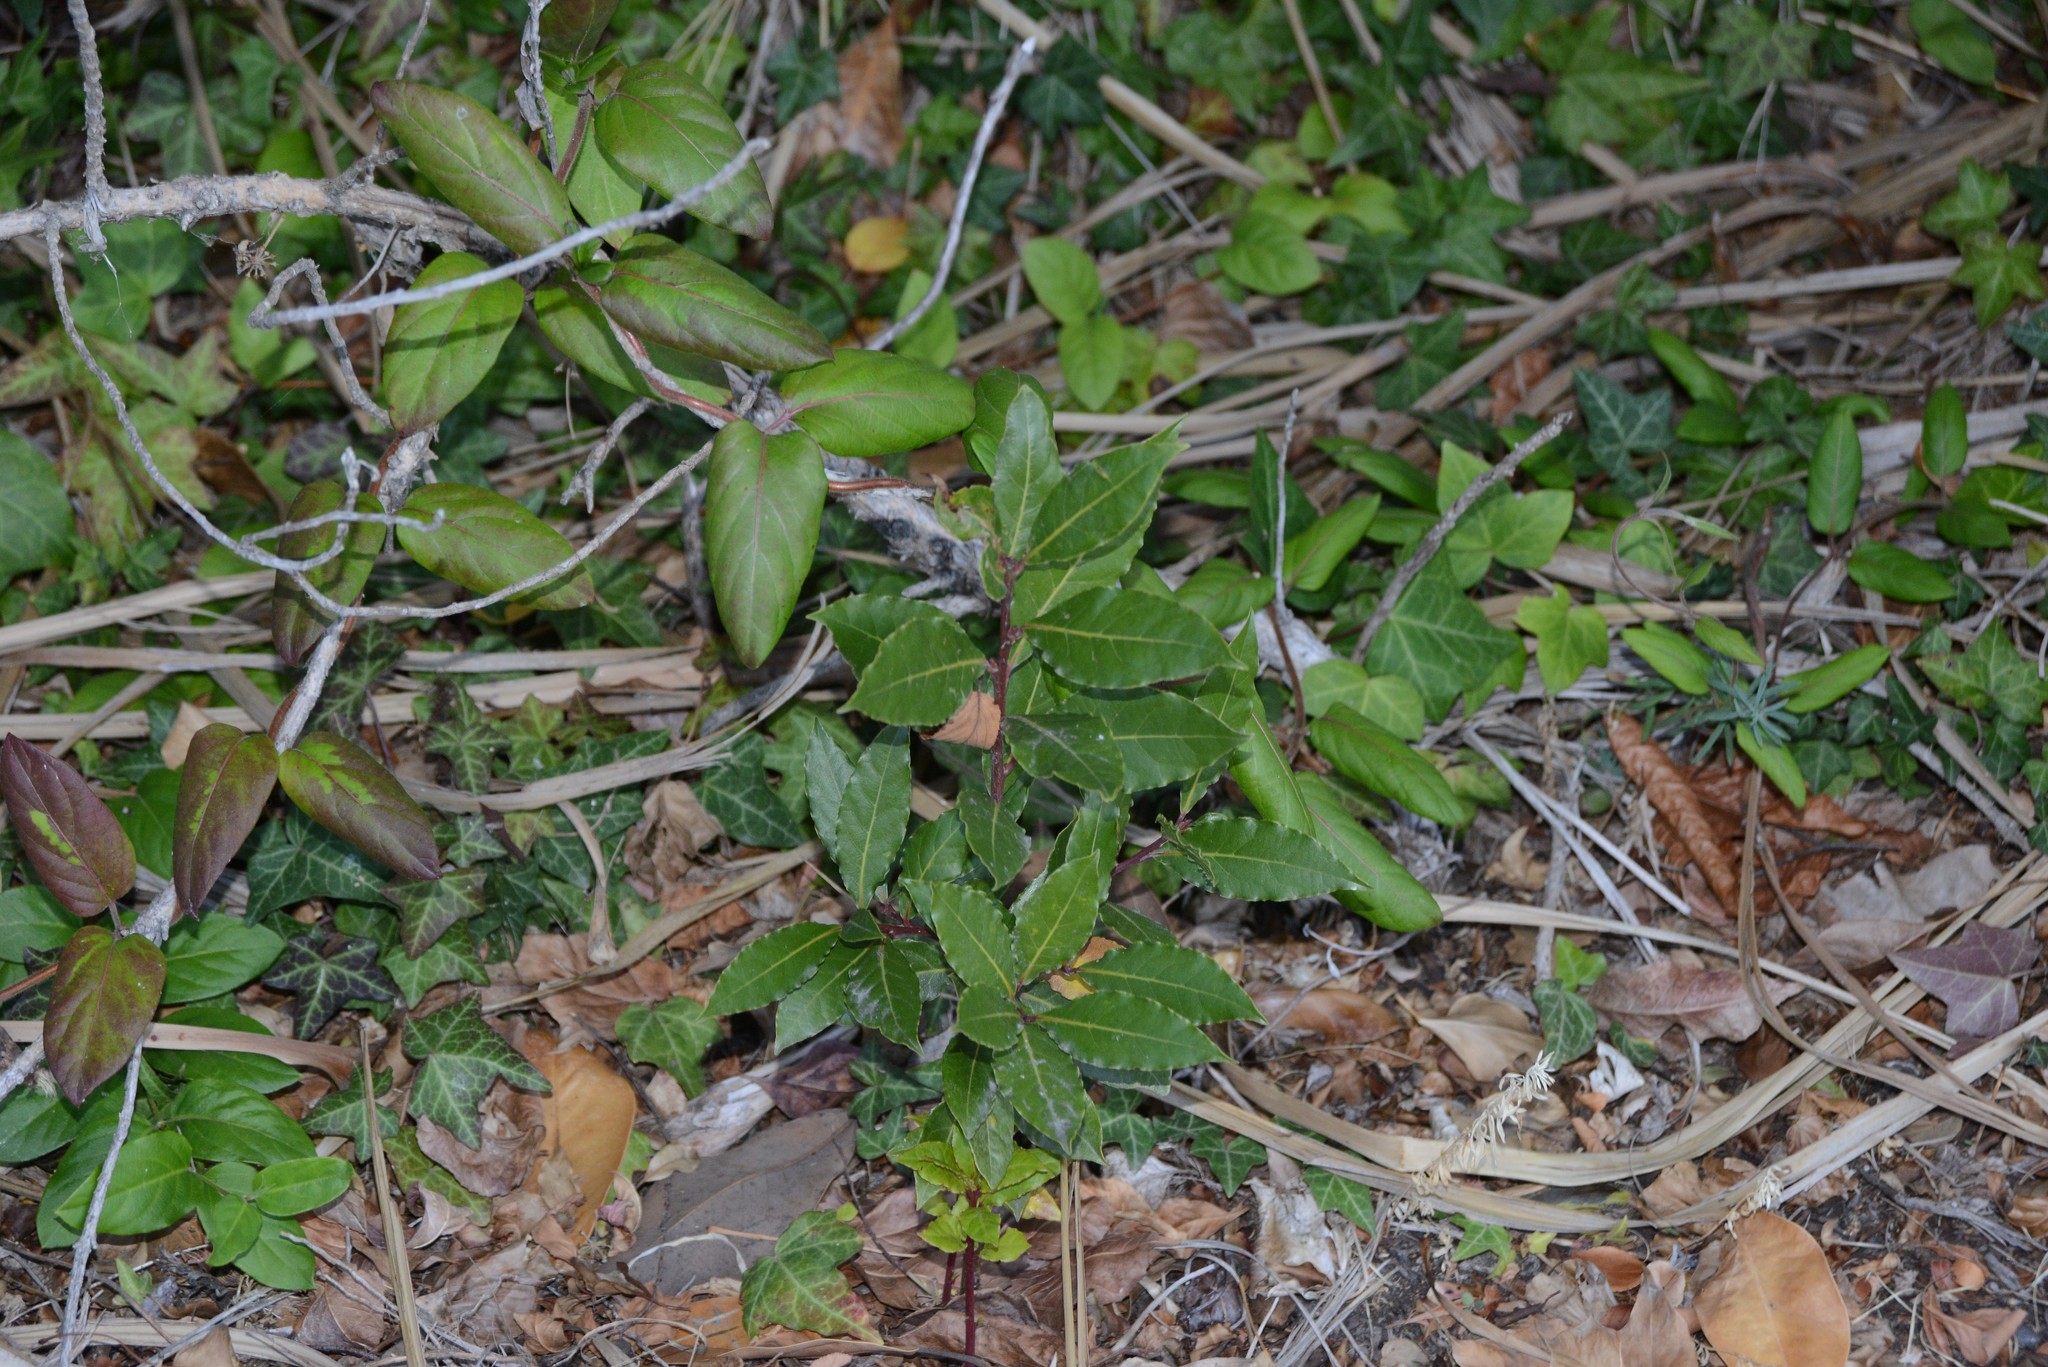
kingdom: Plantae
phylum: Tracheophyta
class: Magnoliopsida
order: Laurales
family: Lauraceae
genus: Laurus
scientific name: Laurus nobilis
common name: Bay
